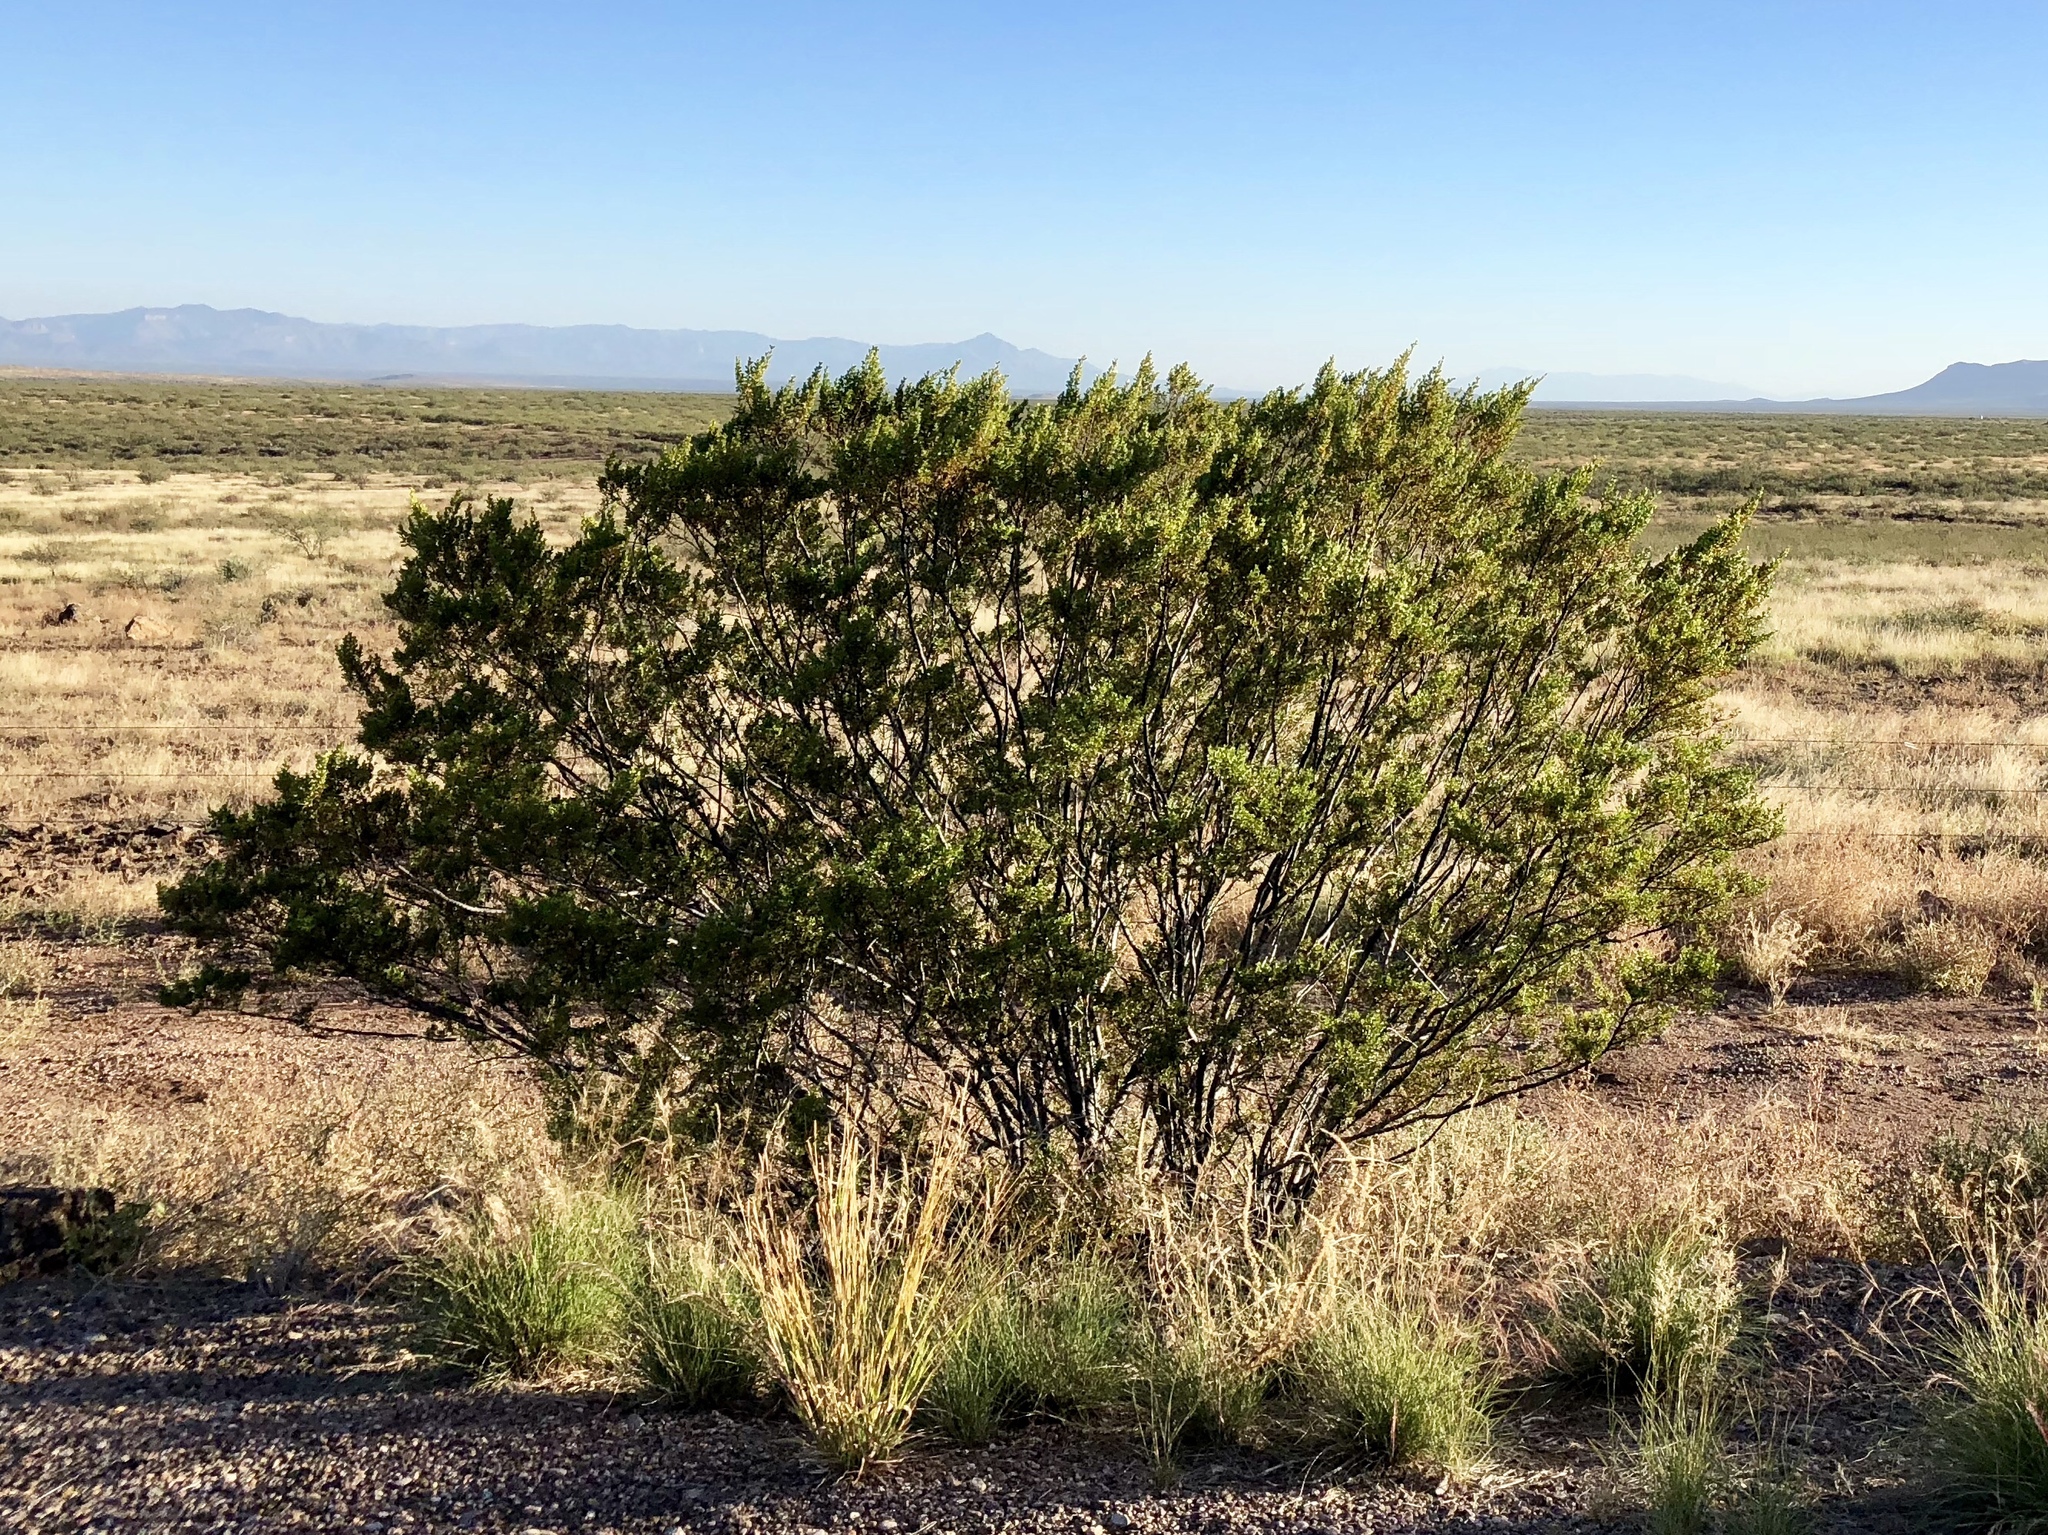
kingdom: Plantae
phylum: Tracheophyta
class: Magnoliopsida
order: Zygophyllales
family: Zygophyllaceae
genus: Larrea
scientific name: Larrea tridentata
